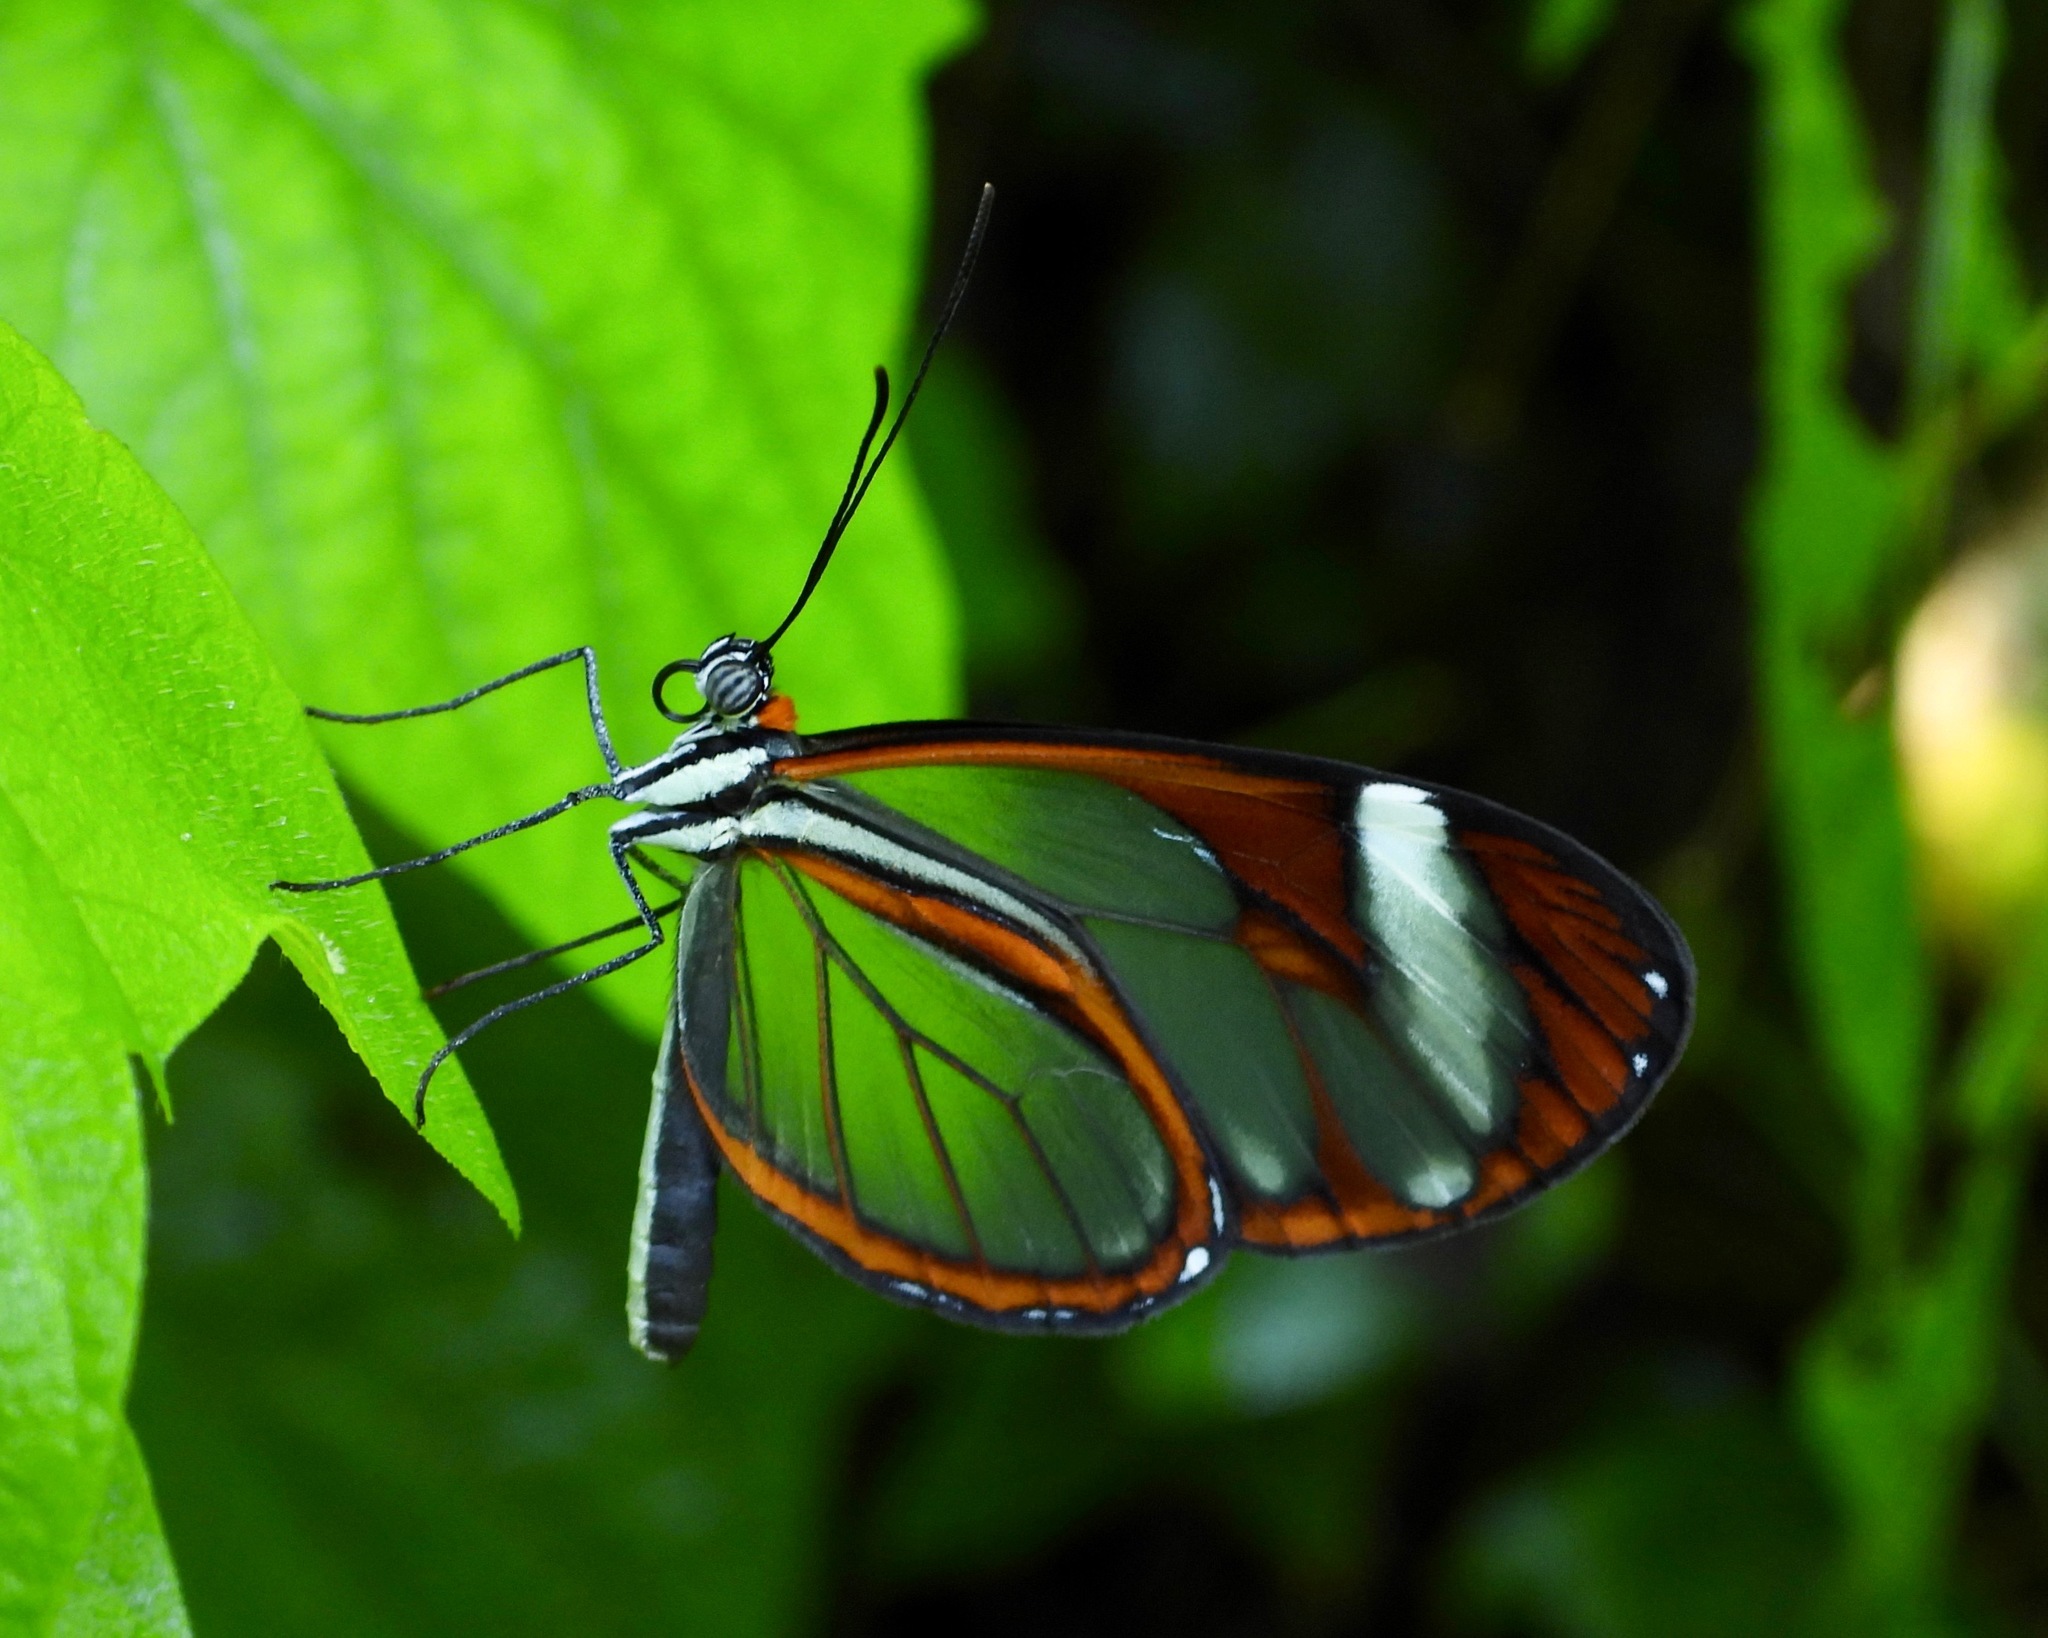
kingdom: Animalia
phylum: Arthropoda
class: Insecta
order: Lepidoptera
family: Nymphalidae
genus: Ithomia
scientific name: Ithomia leilae
